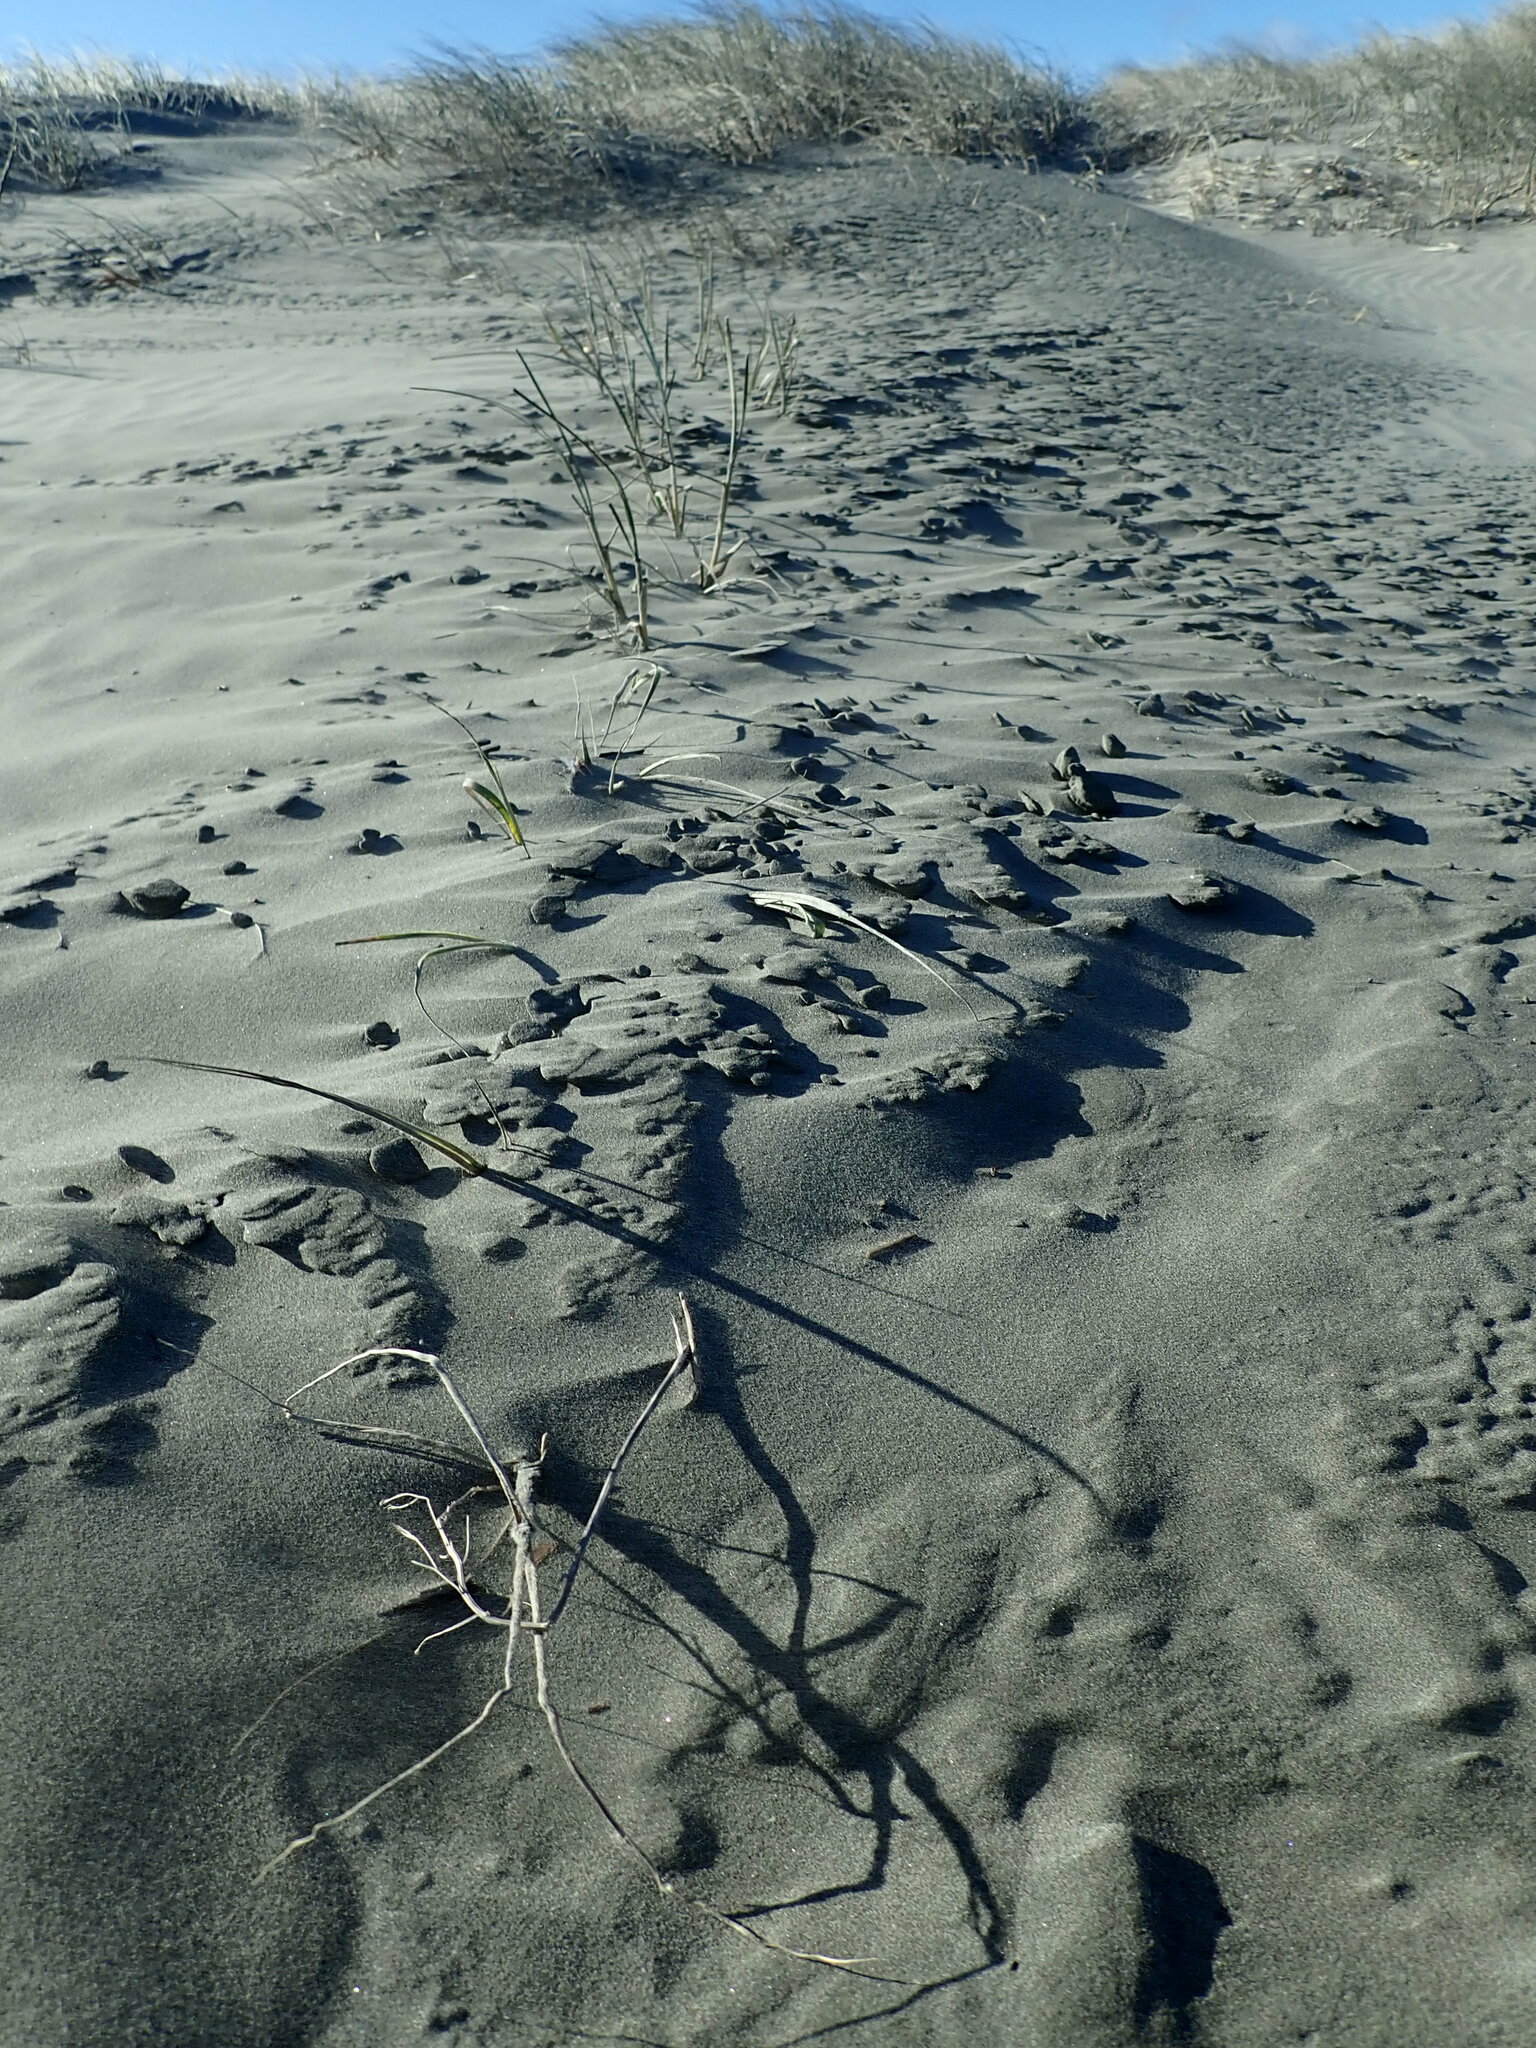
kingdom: Plantae
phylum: Tracheophyta
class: Liliopsida
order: Poales
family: Poaceae
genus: Spinifex
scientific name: Spinifex sericeus
